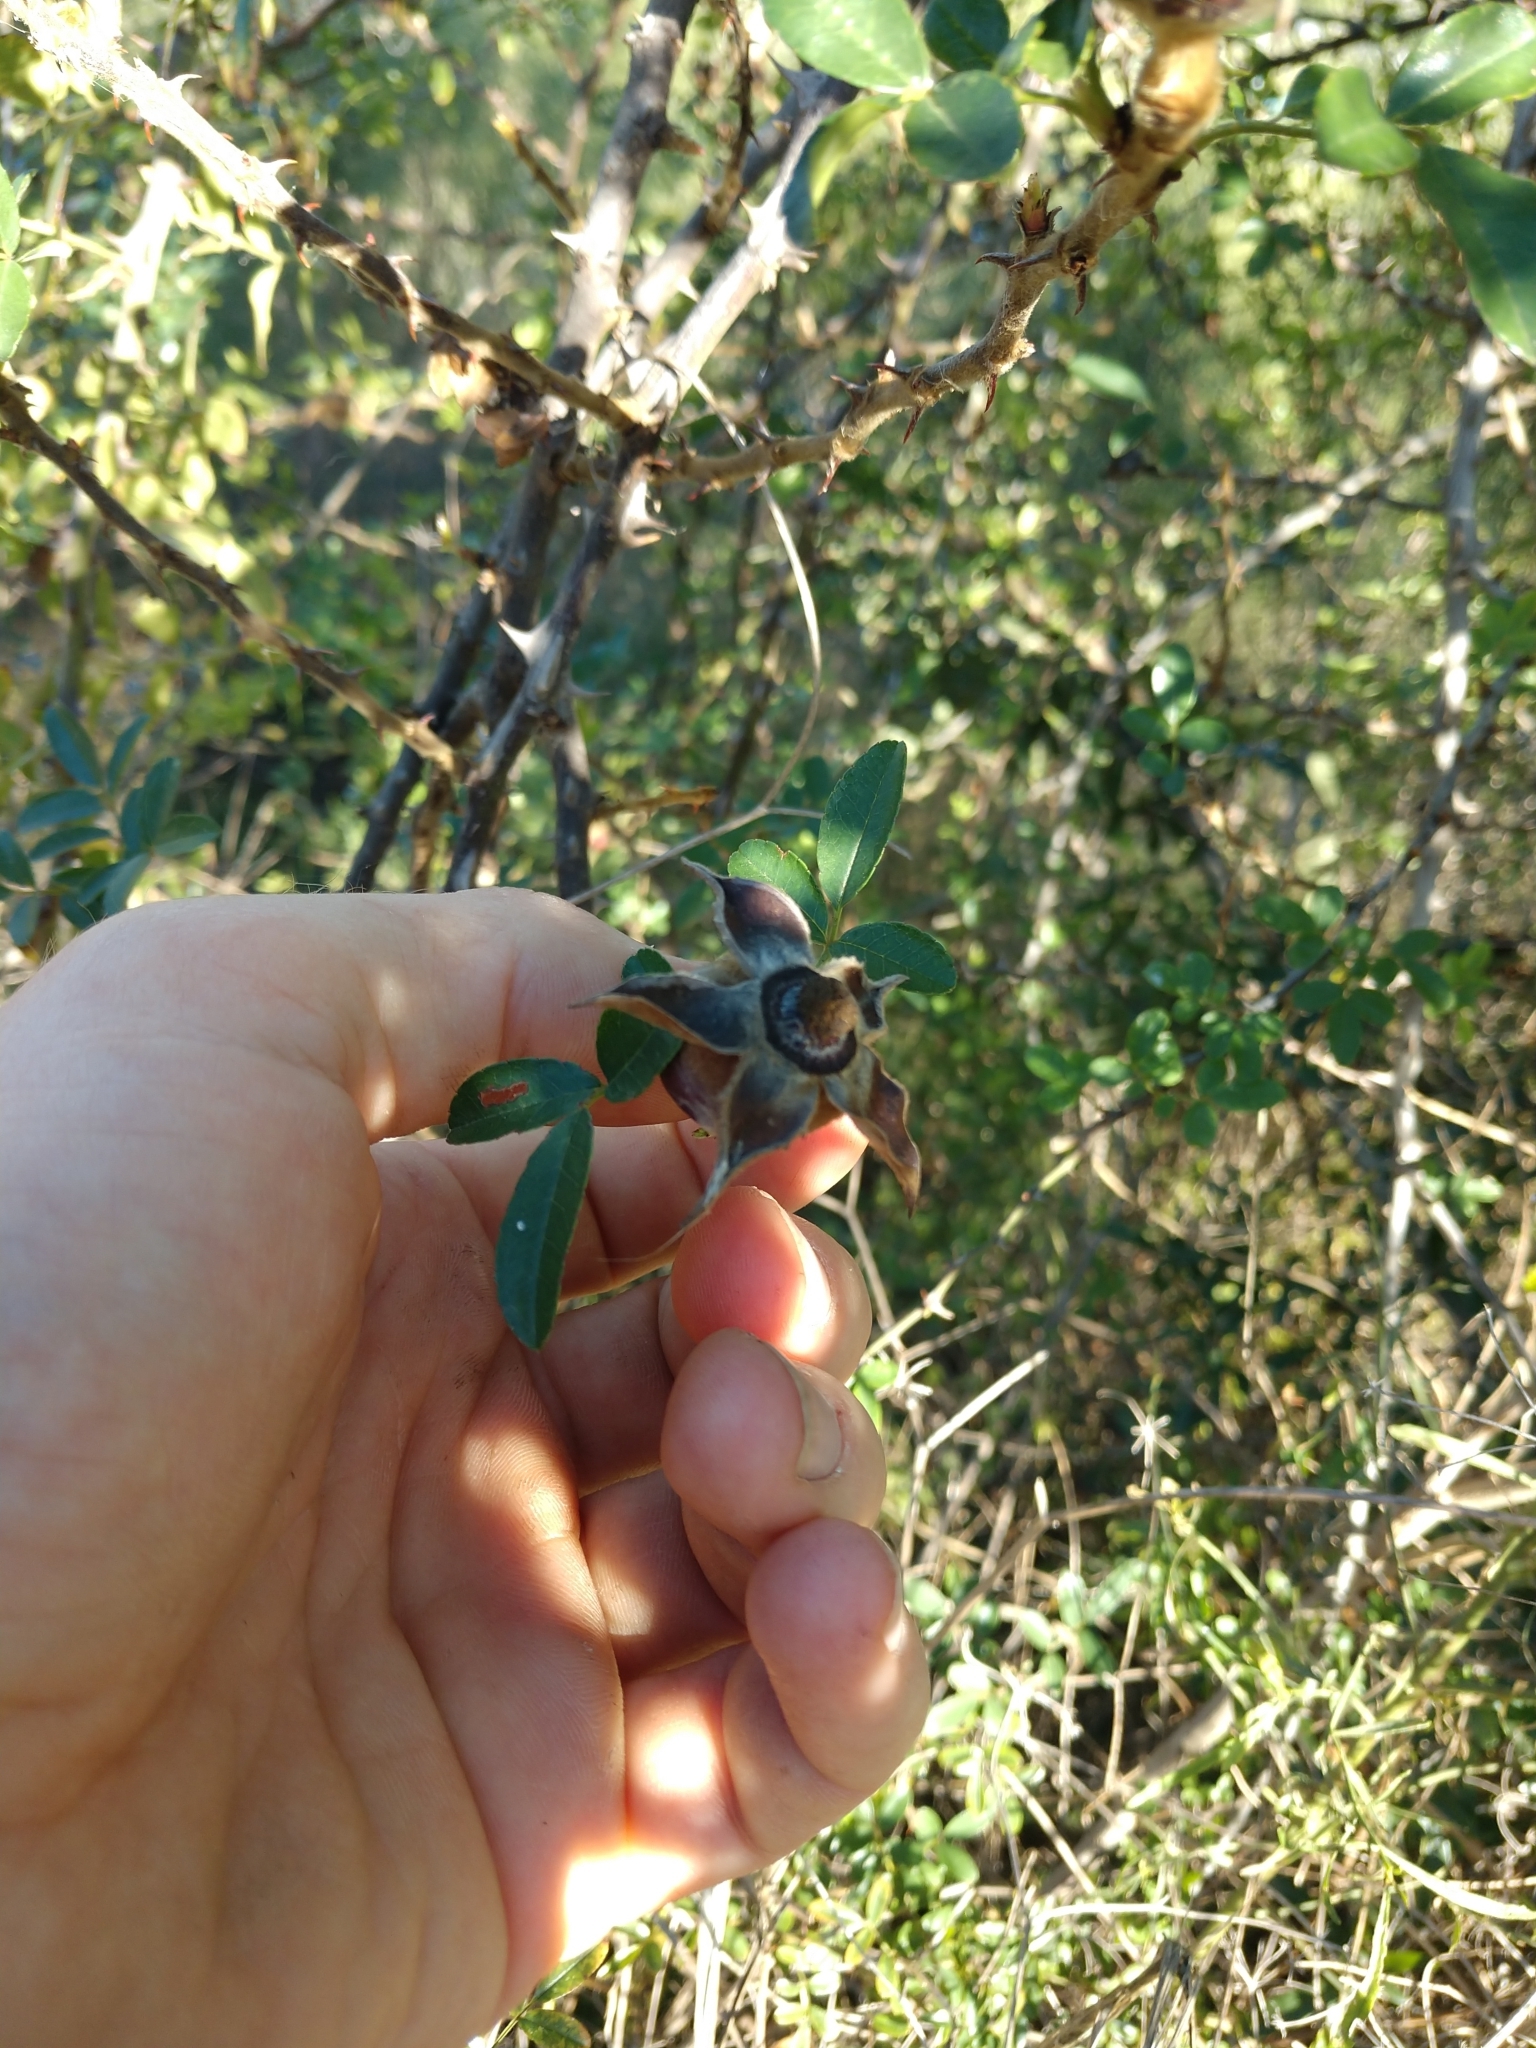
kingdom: Plantae
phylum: Tracheophyta
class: Magnoliopsida
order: Rosales
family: Rosaceae
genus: Rosa
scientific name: Rosa bracteata
